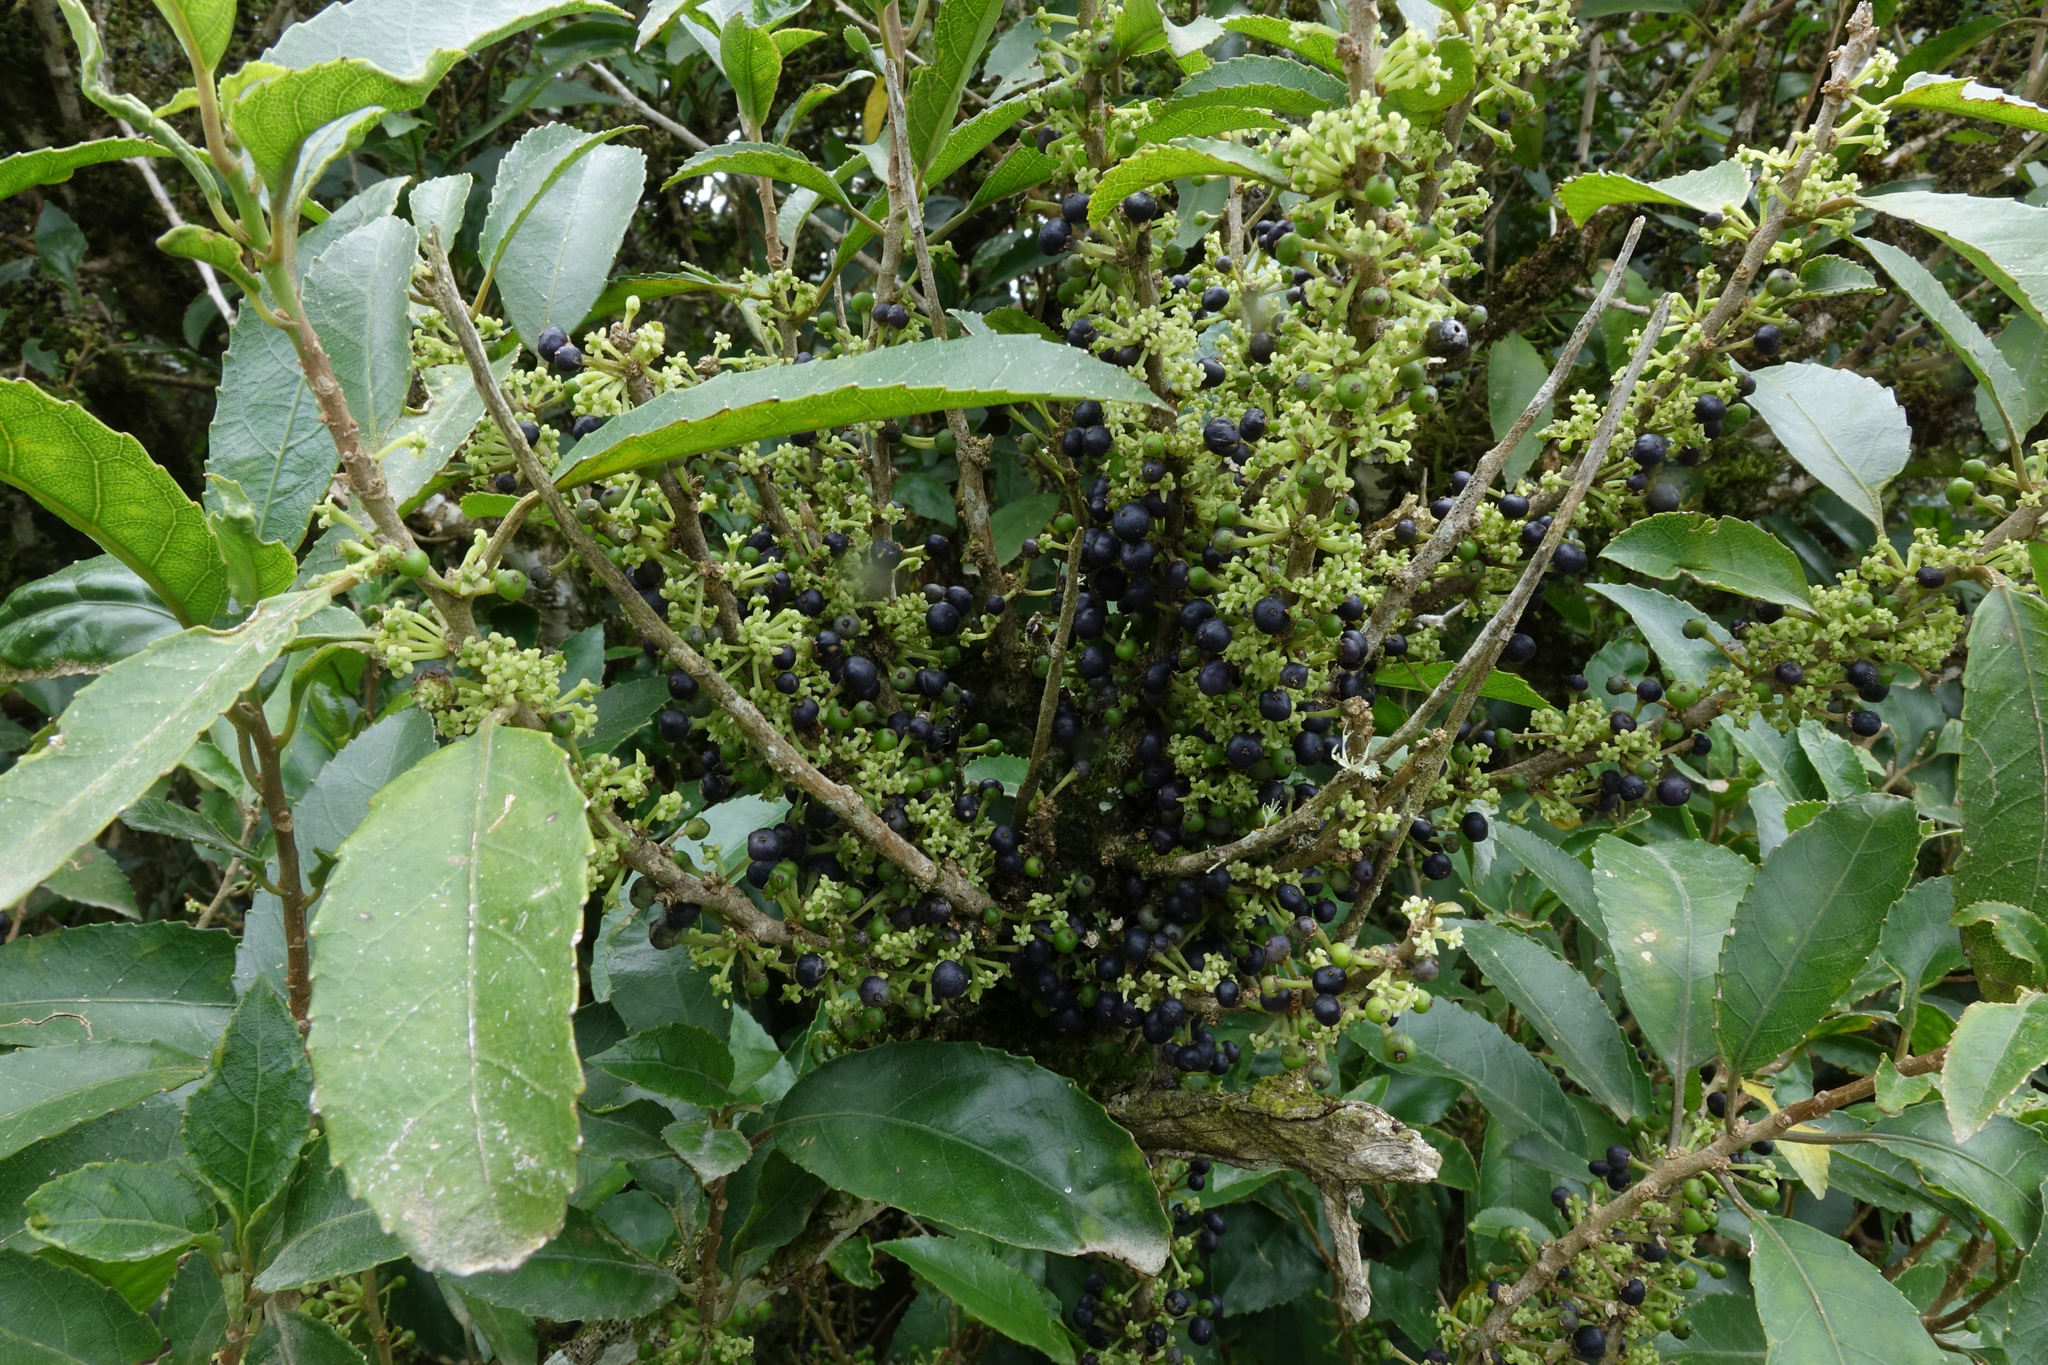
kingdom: Plantae
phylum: Tracheophyta
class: Magnoliopsida
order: Malpighiales
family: Violaceae
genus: Melicytus
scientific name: Melicytus ramiflorus
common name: Mahoe
